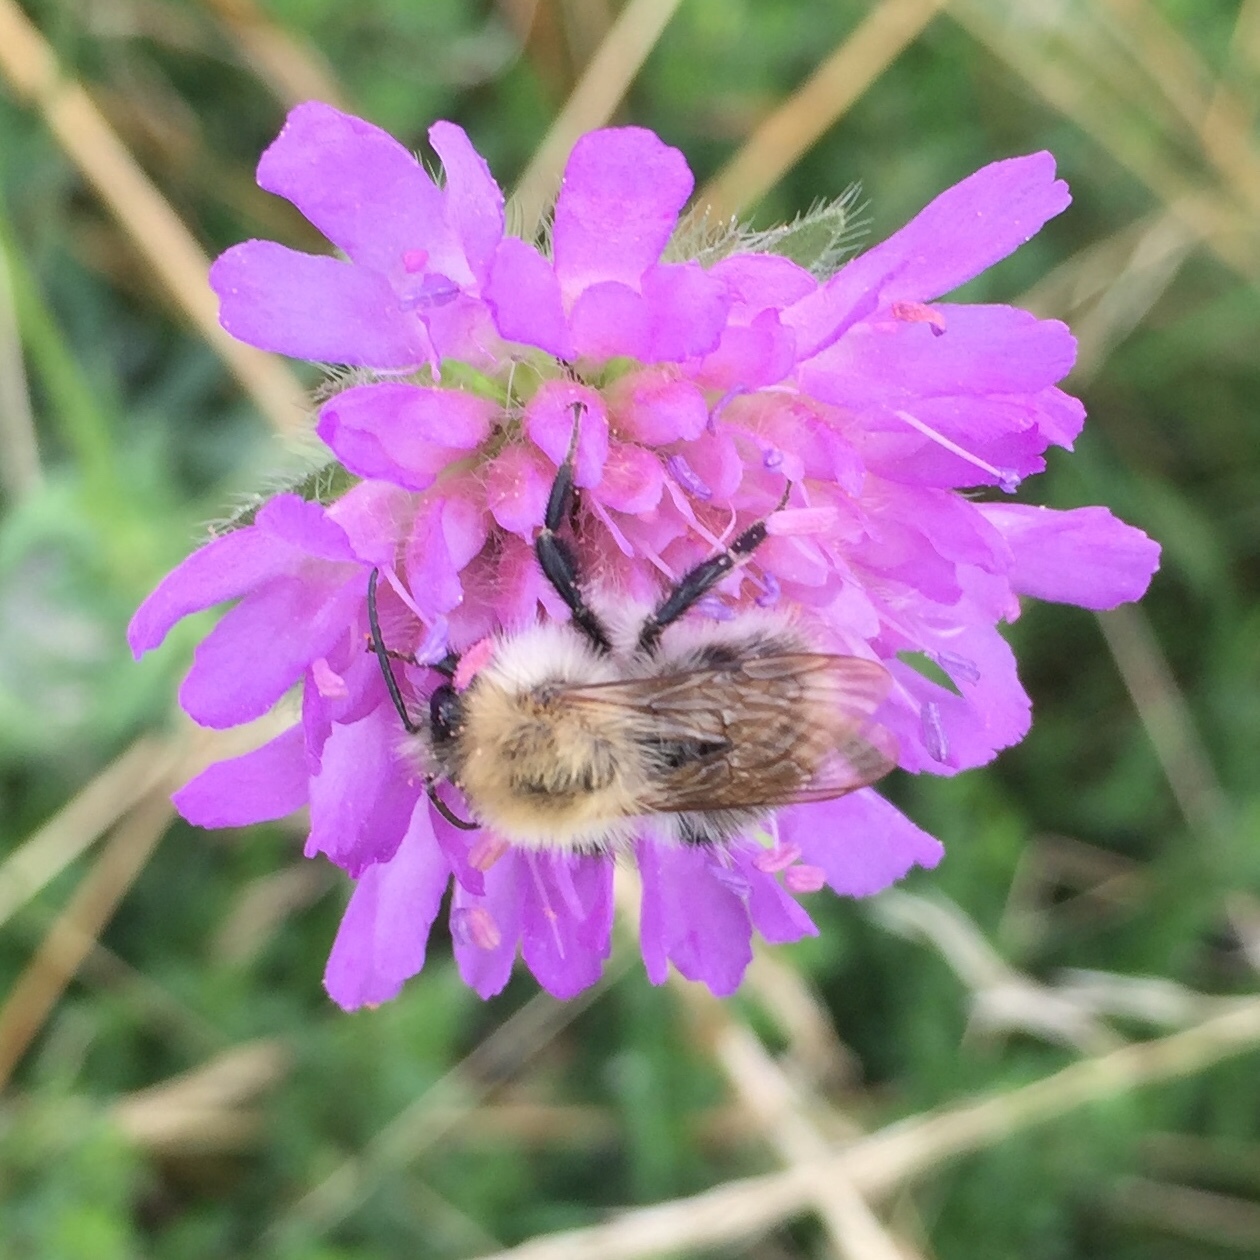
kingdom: Animalia
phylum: Arthropoda
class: Insecta
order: Hymenoptera
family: Apidae
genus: Bombus
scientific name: Bombus pascuorum
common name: Common carder bee
